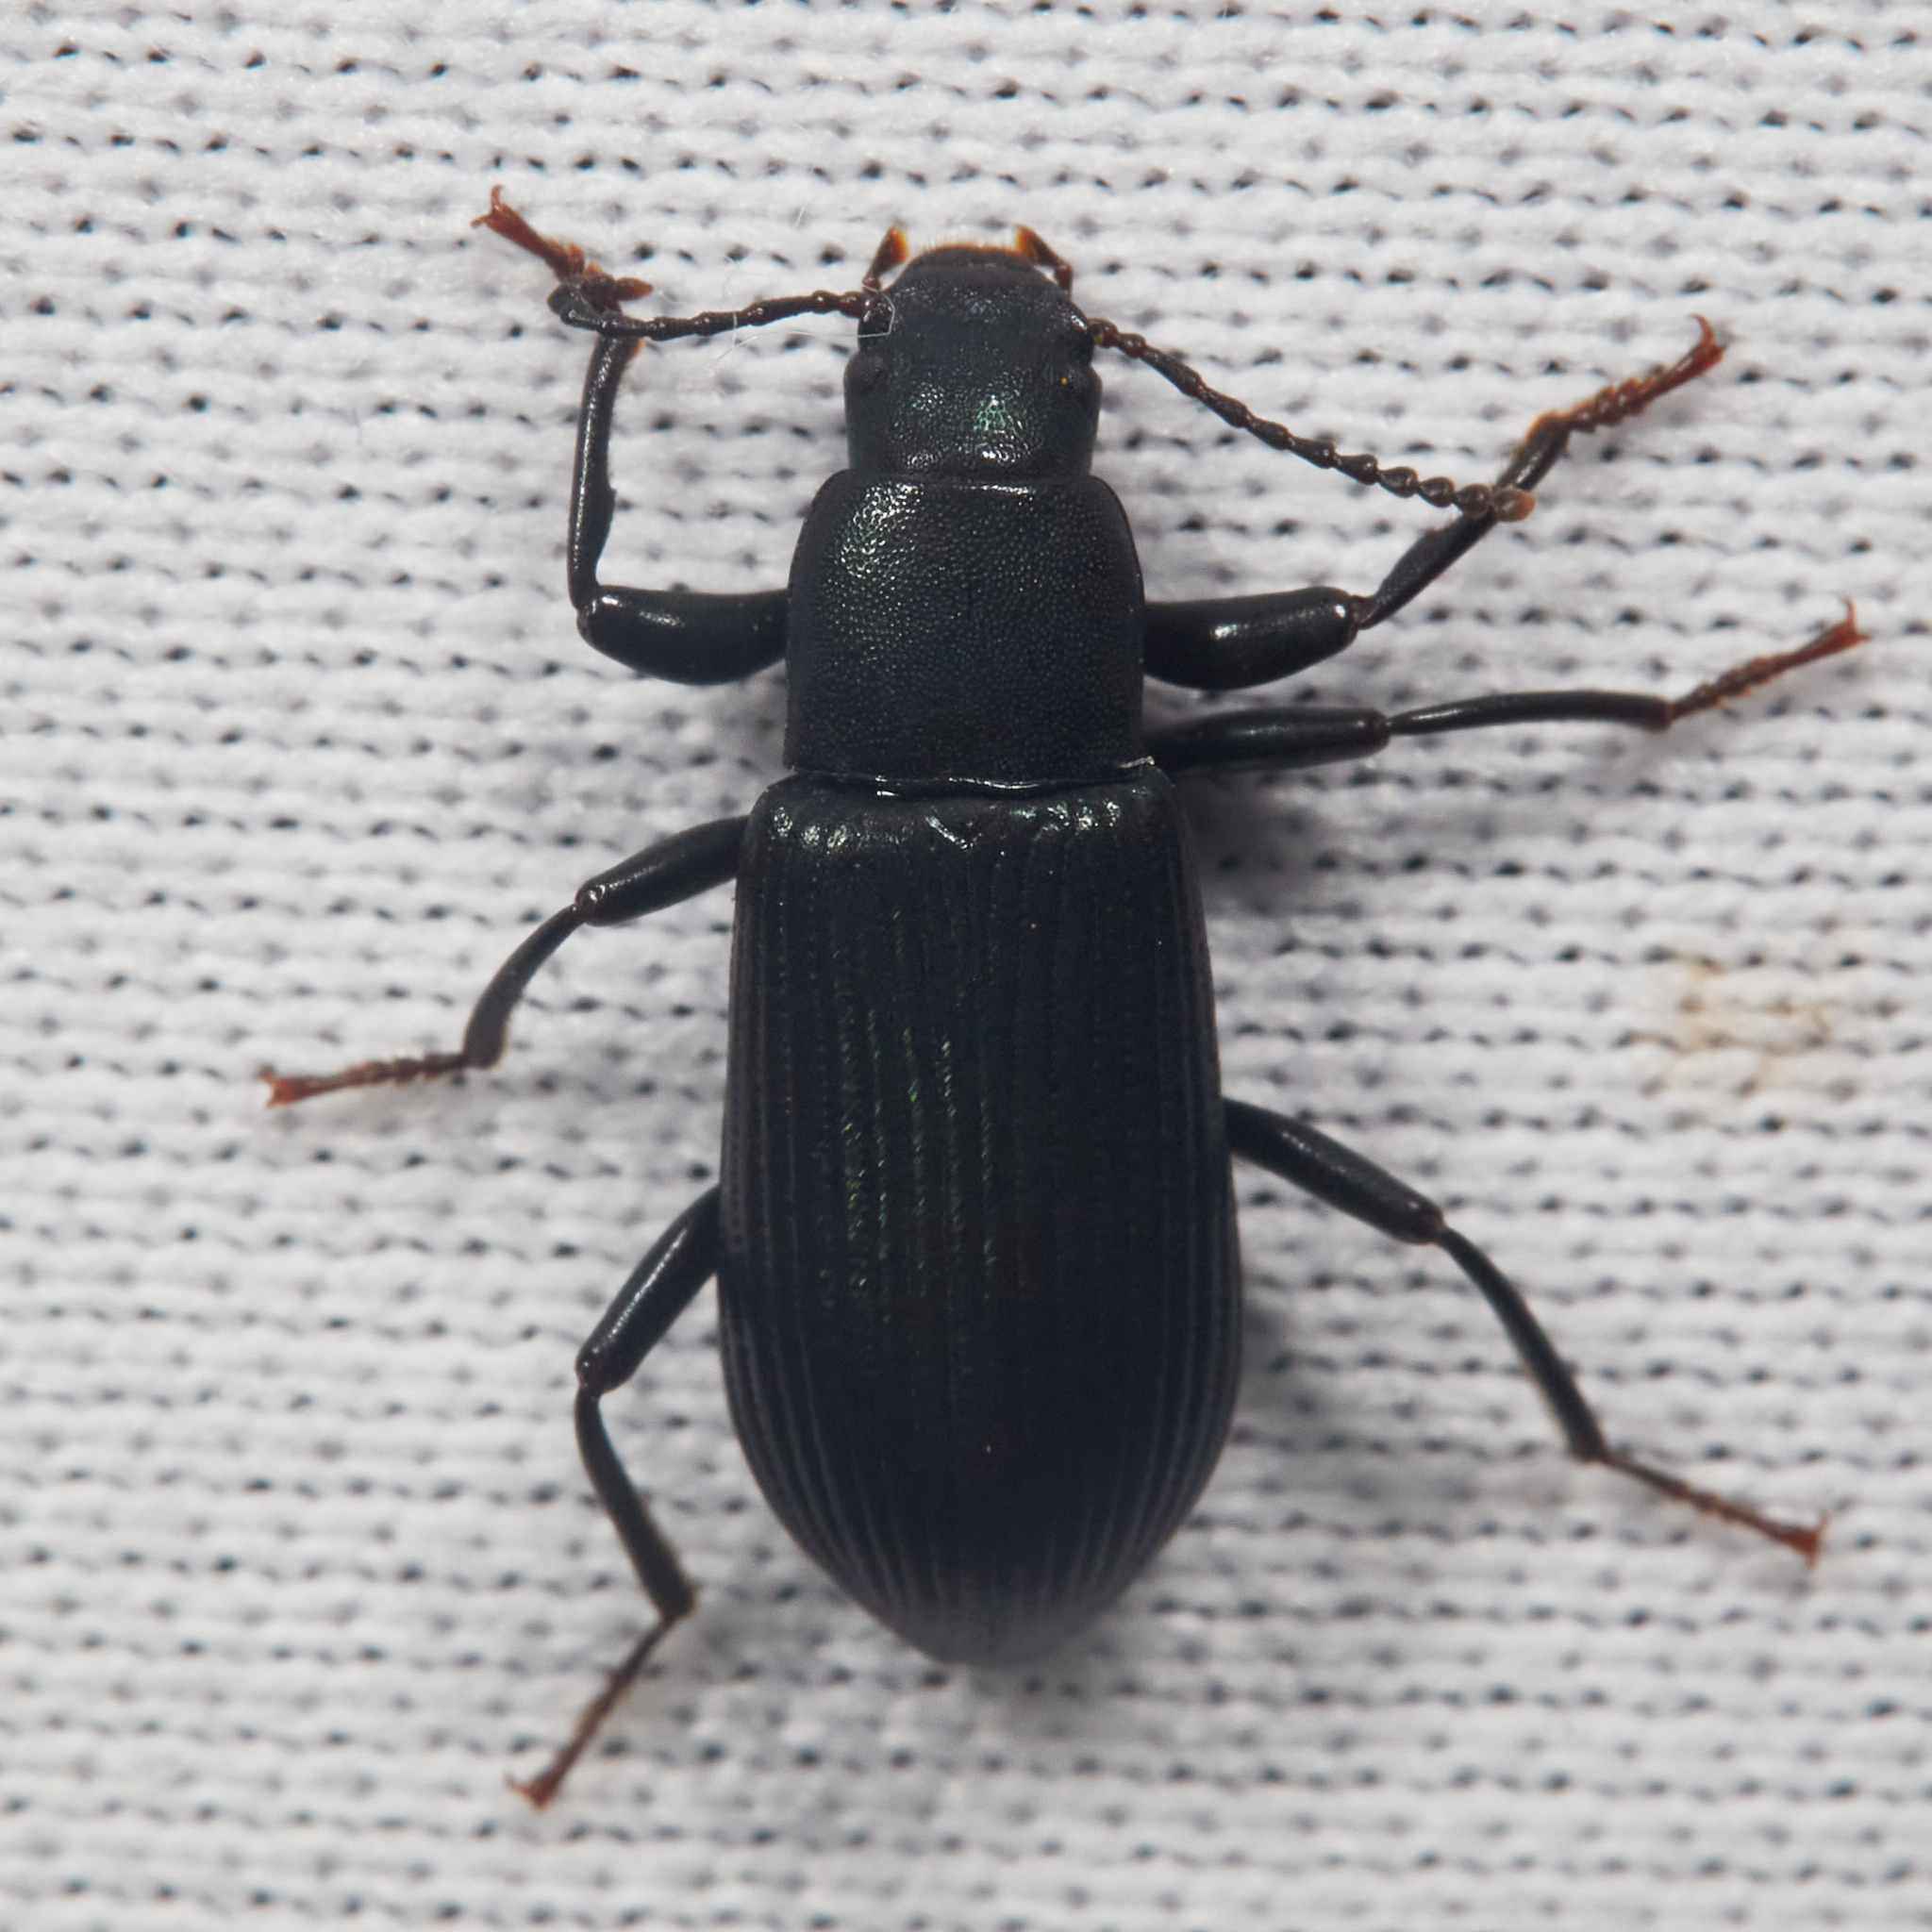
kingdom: Animalia
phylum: Arthropoda
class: Insecta
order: Coleoptera
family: Tenebrionidae
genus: Xylopinus
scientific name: Xylopinus saperdoides
